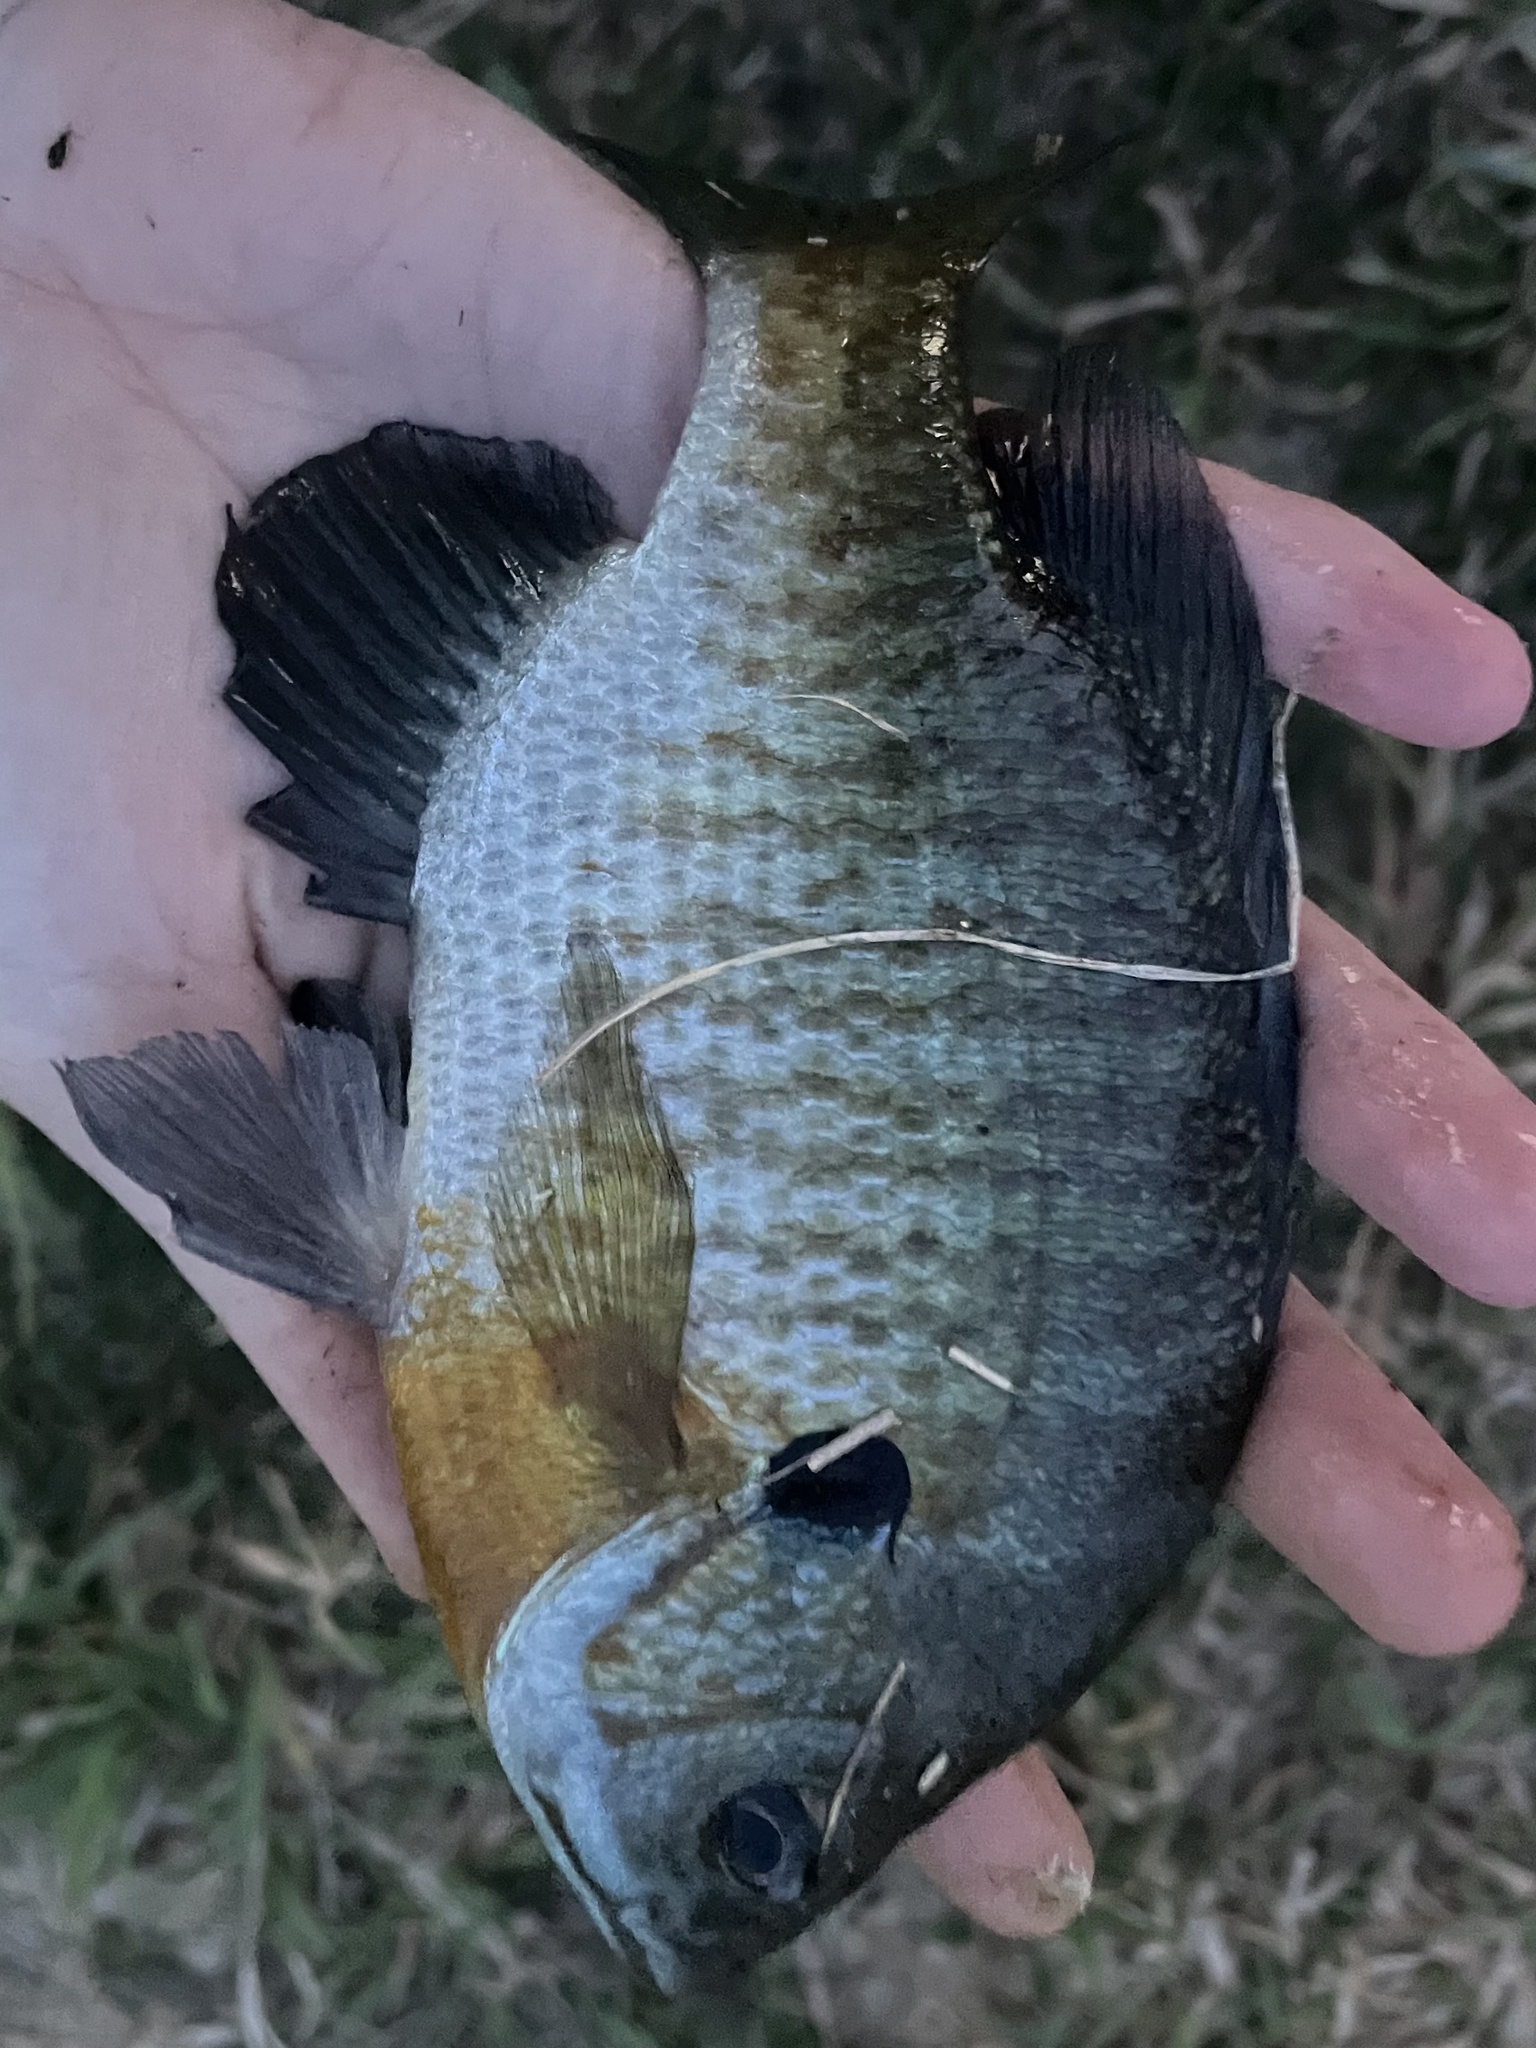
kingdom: Animalia
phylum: Chordata
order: Perciformes
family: Centrarchidae
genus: Lepomis
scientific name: Lepomis macrochirus
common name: Bluegill
